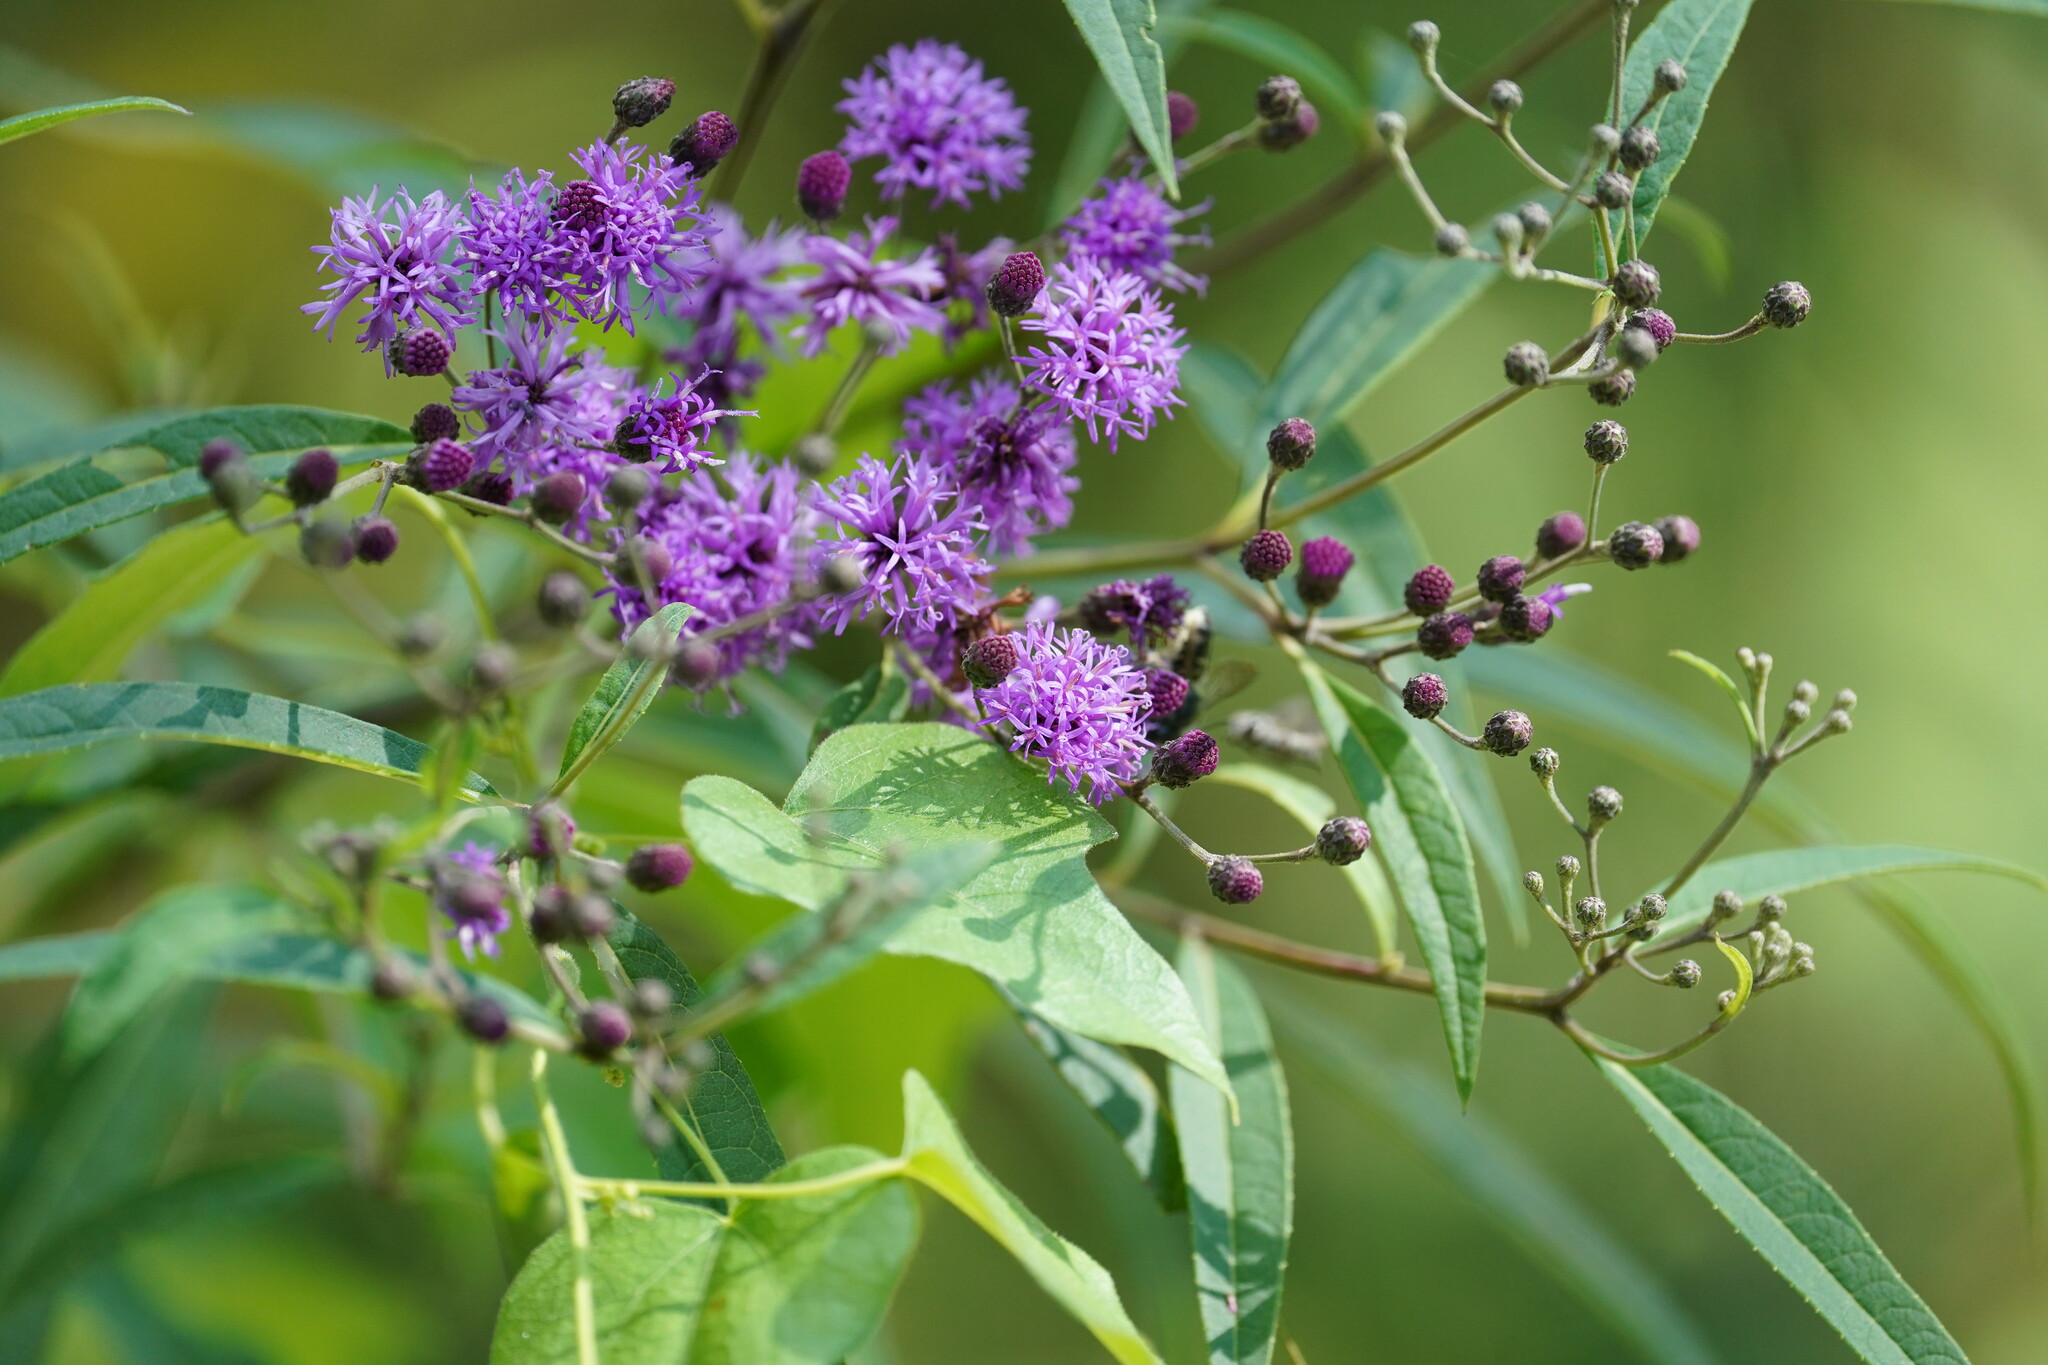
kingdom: Plantae
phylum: Tracheophyta
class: Magnoliopsida
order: Asterales
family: Asteraceae
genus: Vernonia
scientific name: Vernonia gigantea
